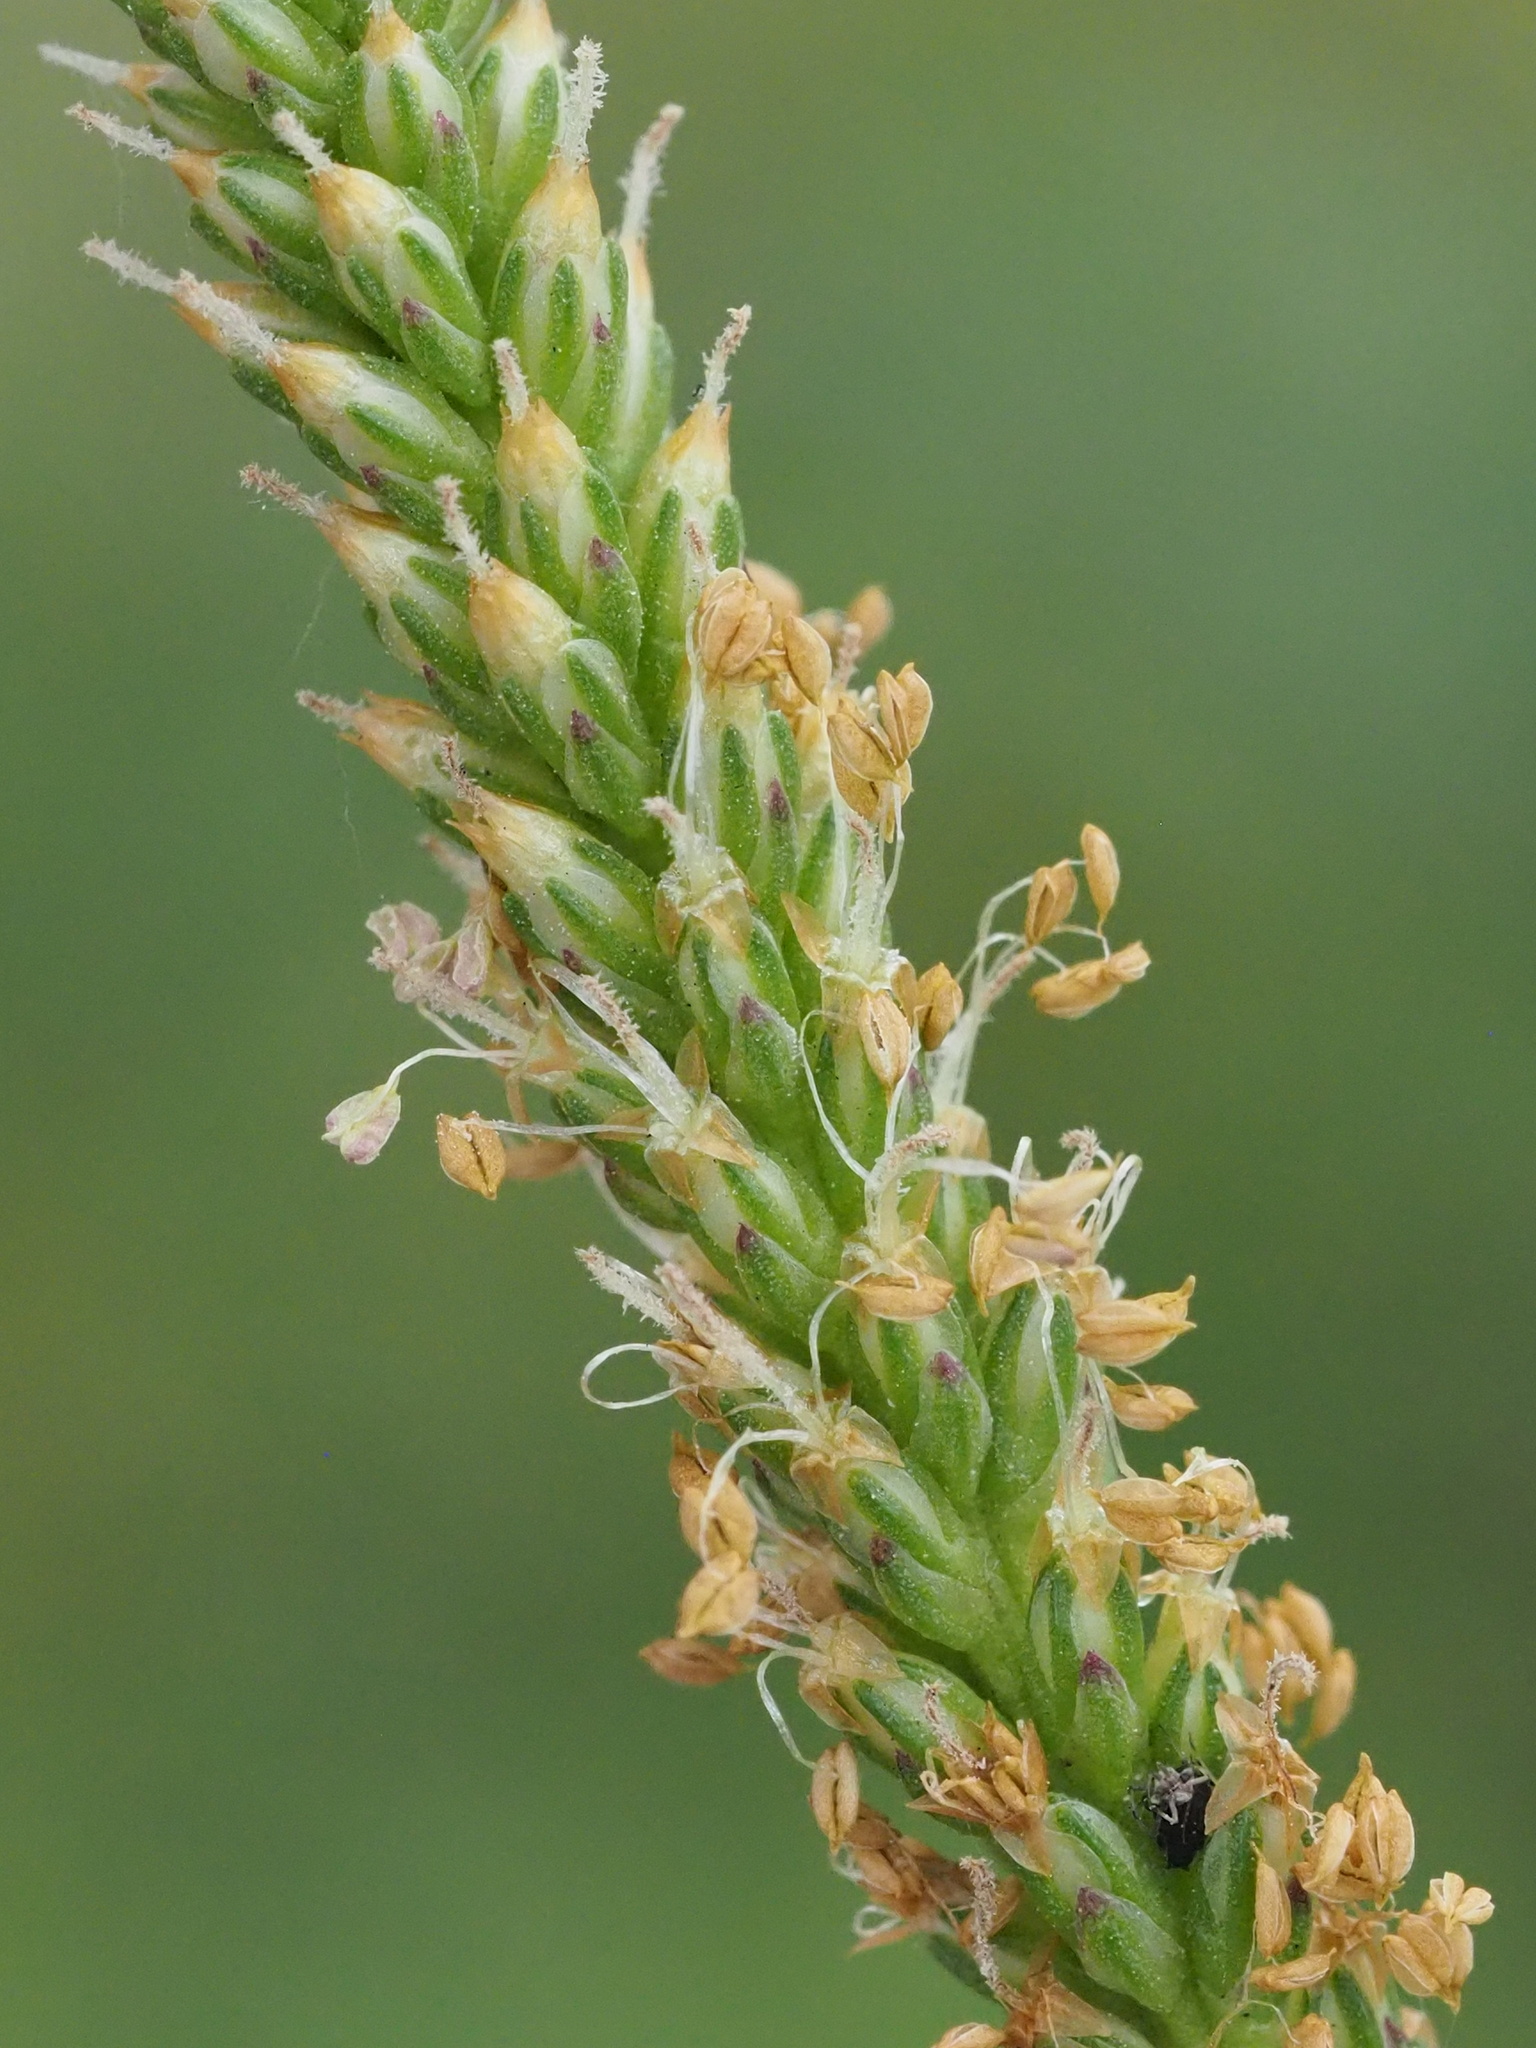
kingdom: Plantae
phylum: Tracheophyta
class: Magnoliopsida
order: Lamiales
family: Plantaginaceae
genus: Plantago
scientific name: Plantago asiatica
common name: Psyllium
